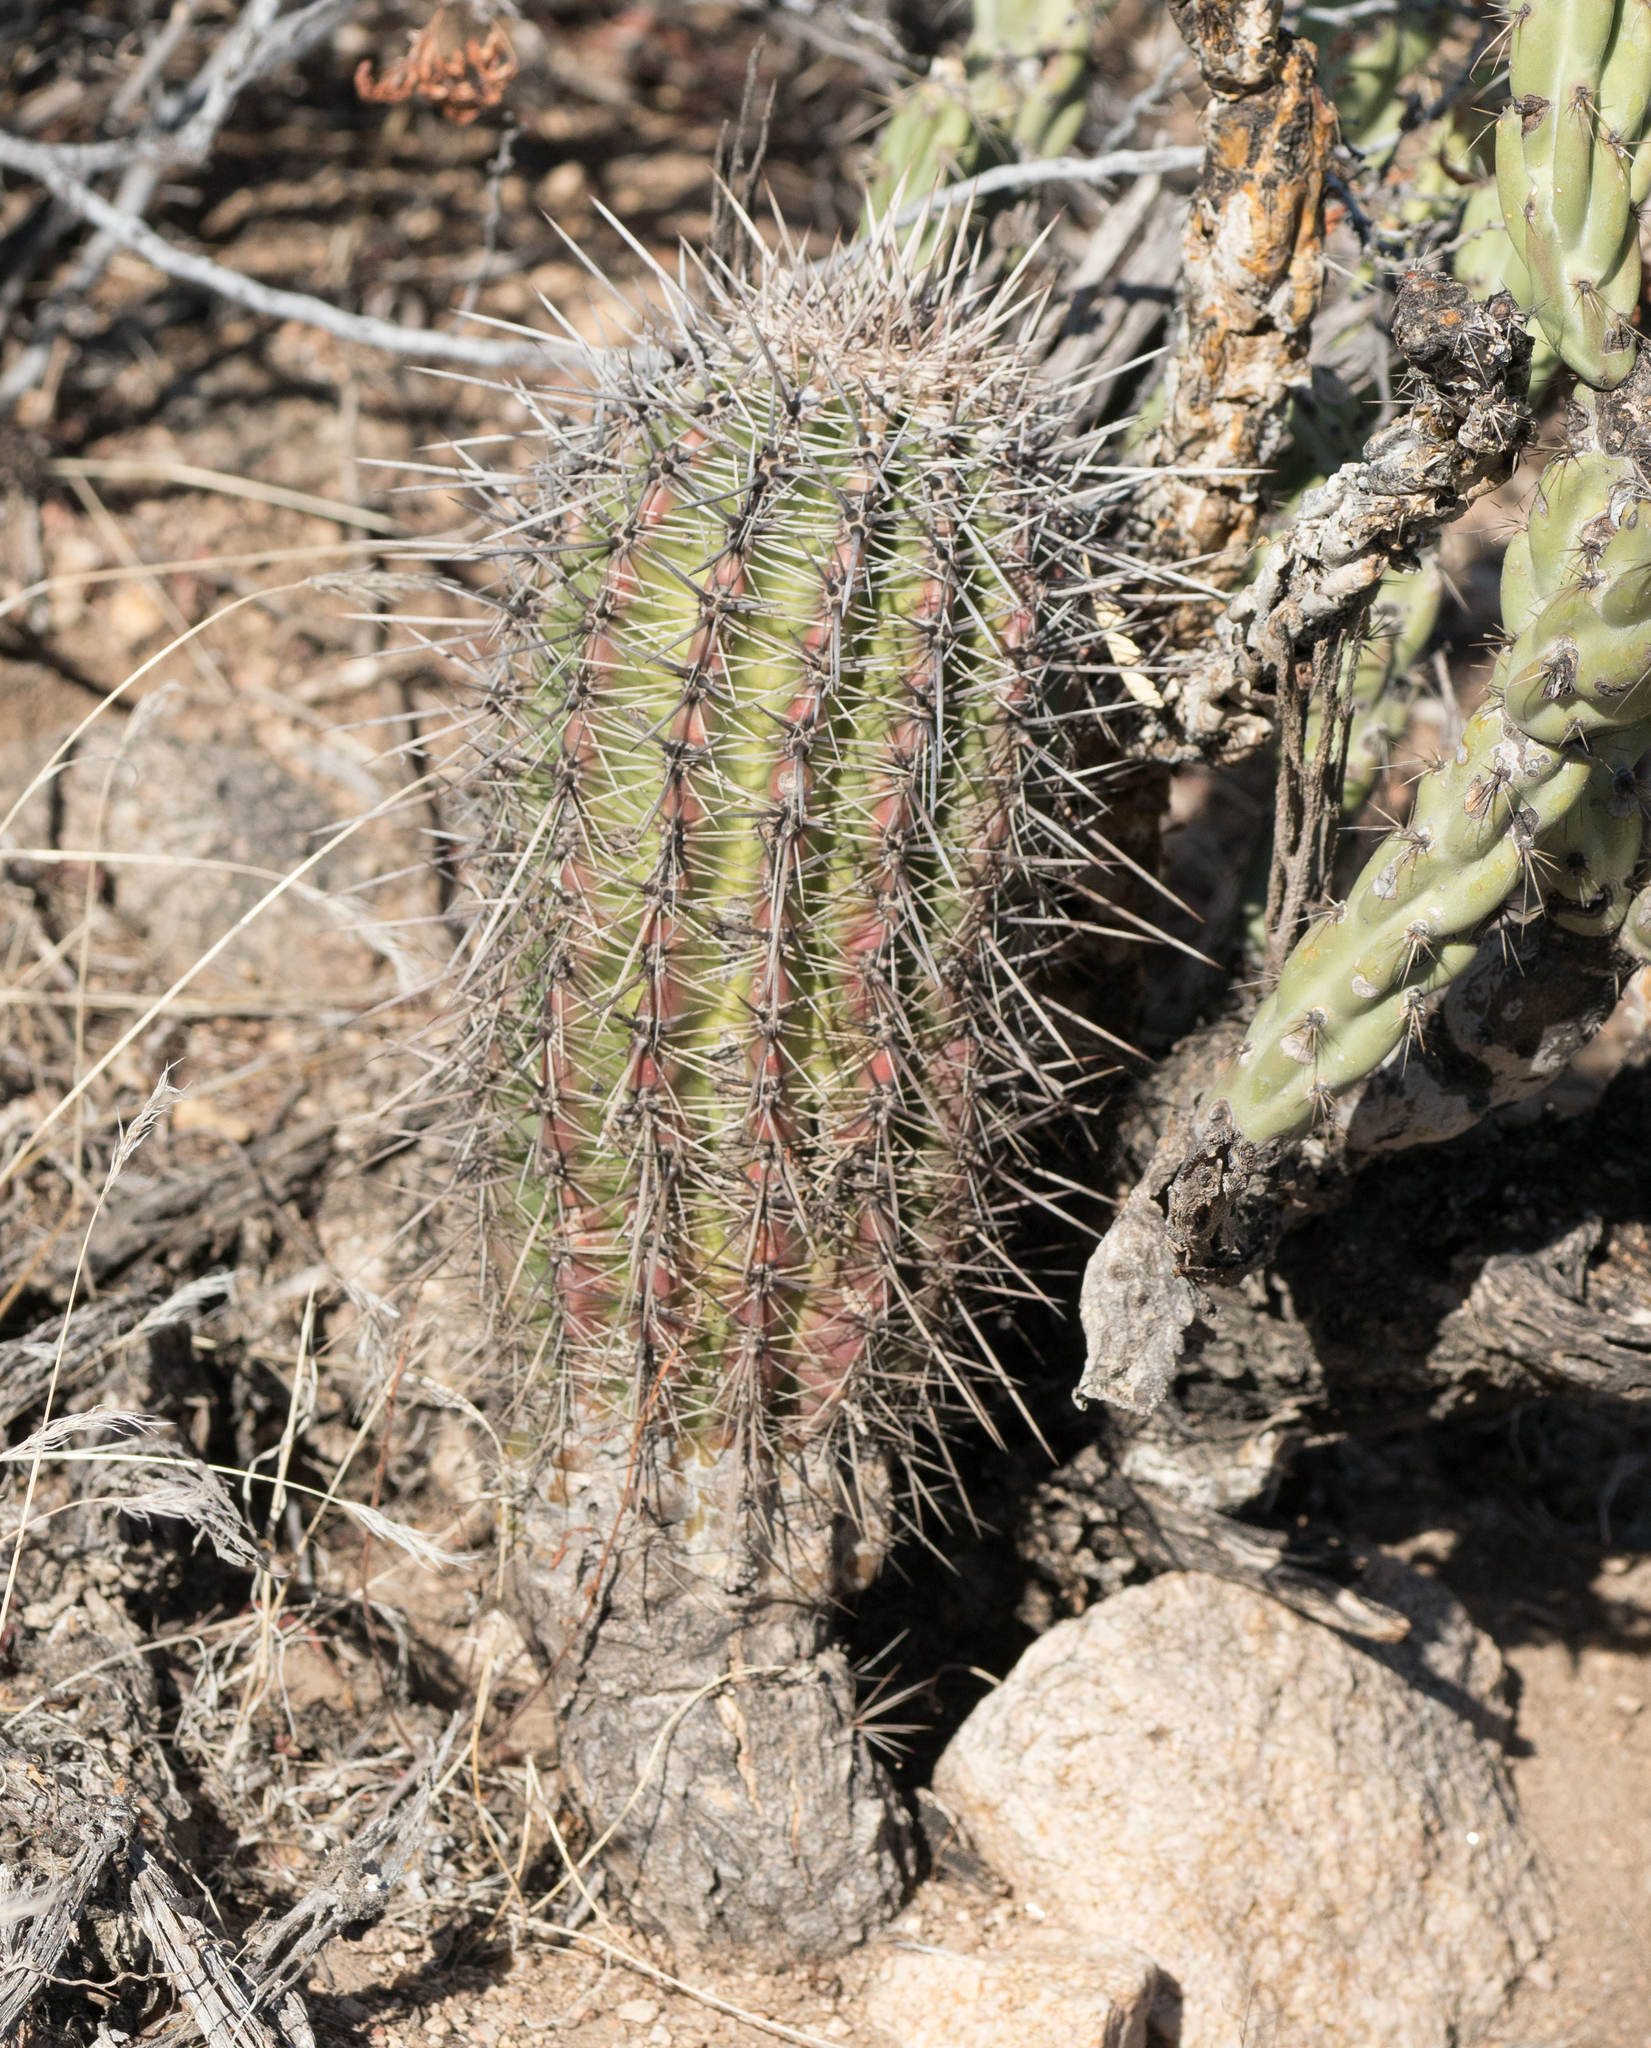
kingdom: Plantae
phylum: Tracheophyta
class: Magnoliopsida
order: Caryophyllales
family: Cactaceae
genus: Carnegiea
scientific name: Carnegiea gigantea
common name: Saguaro
